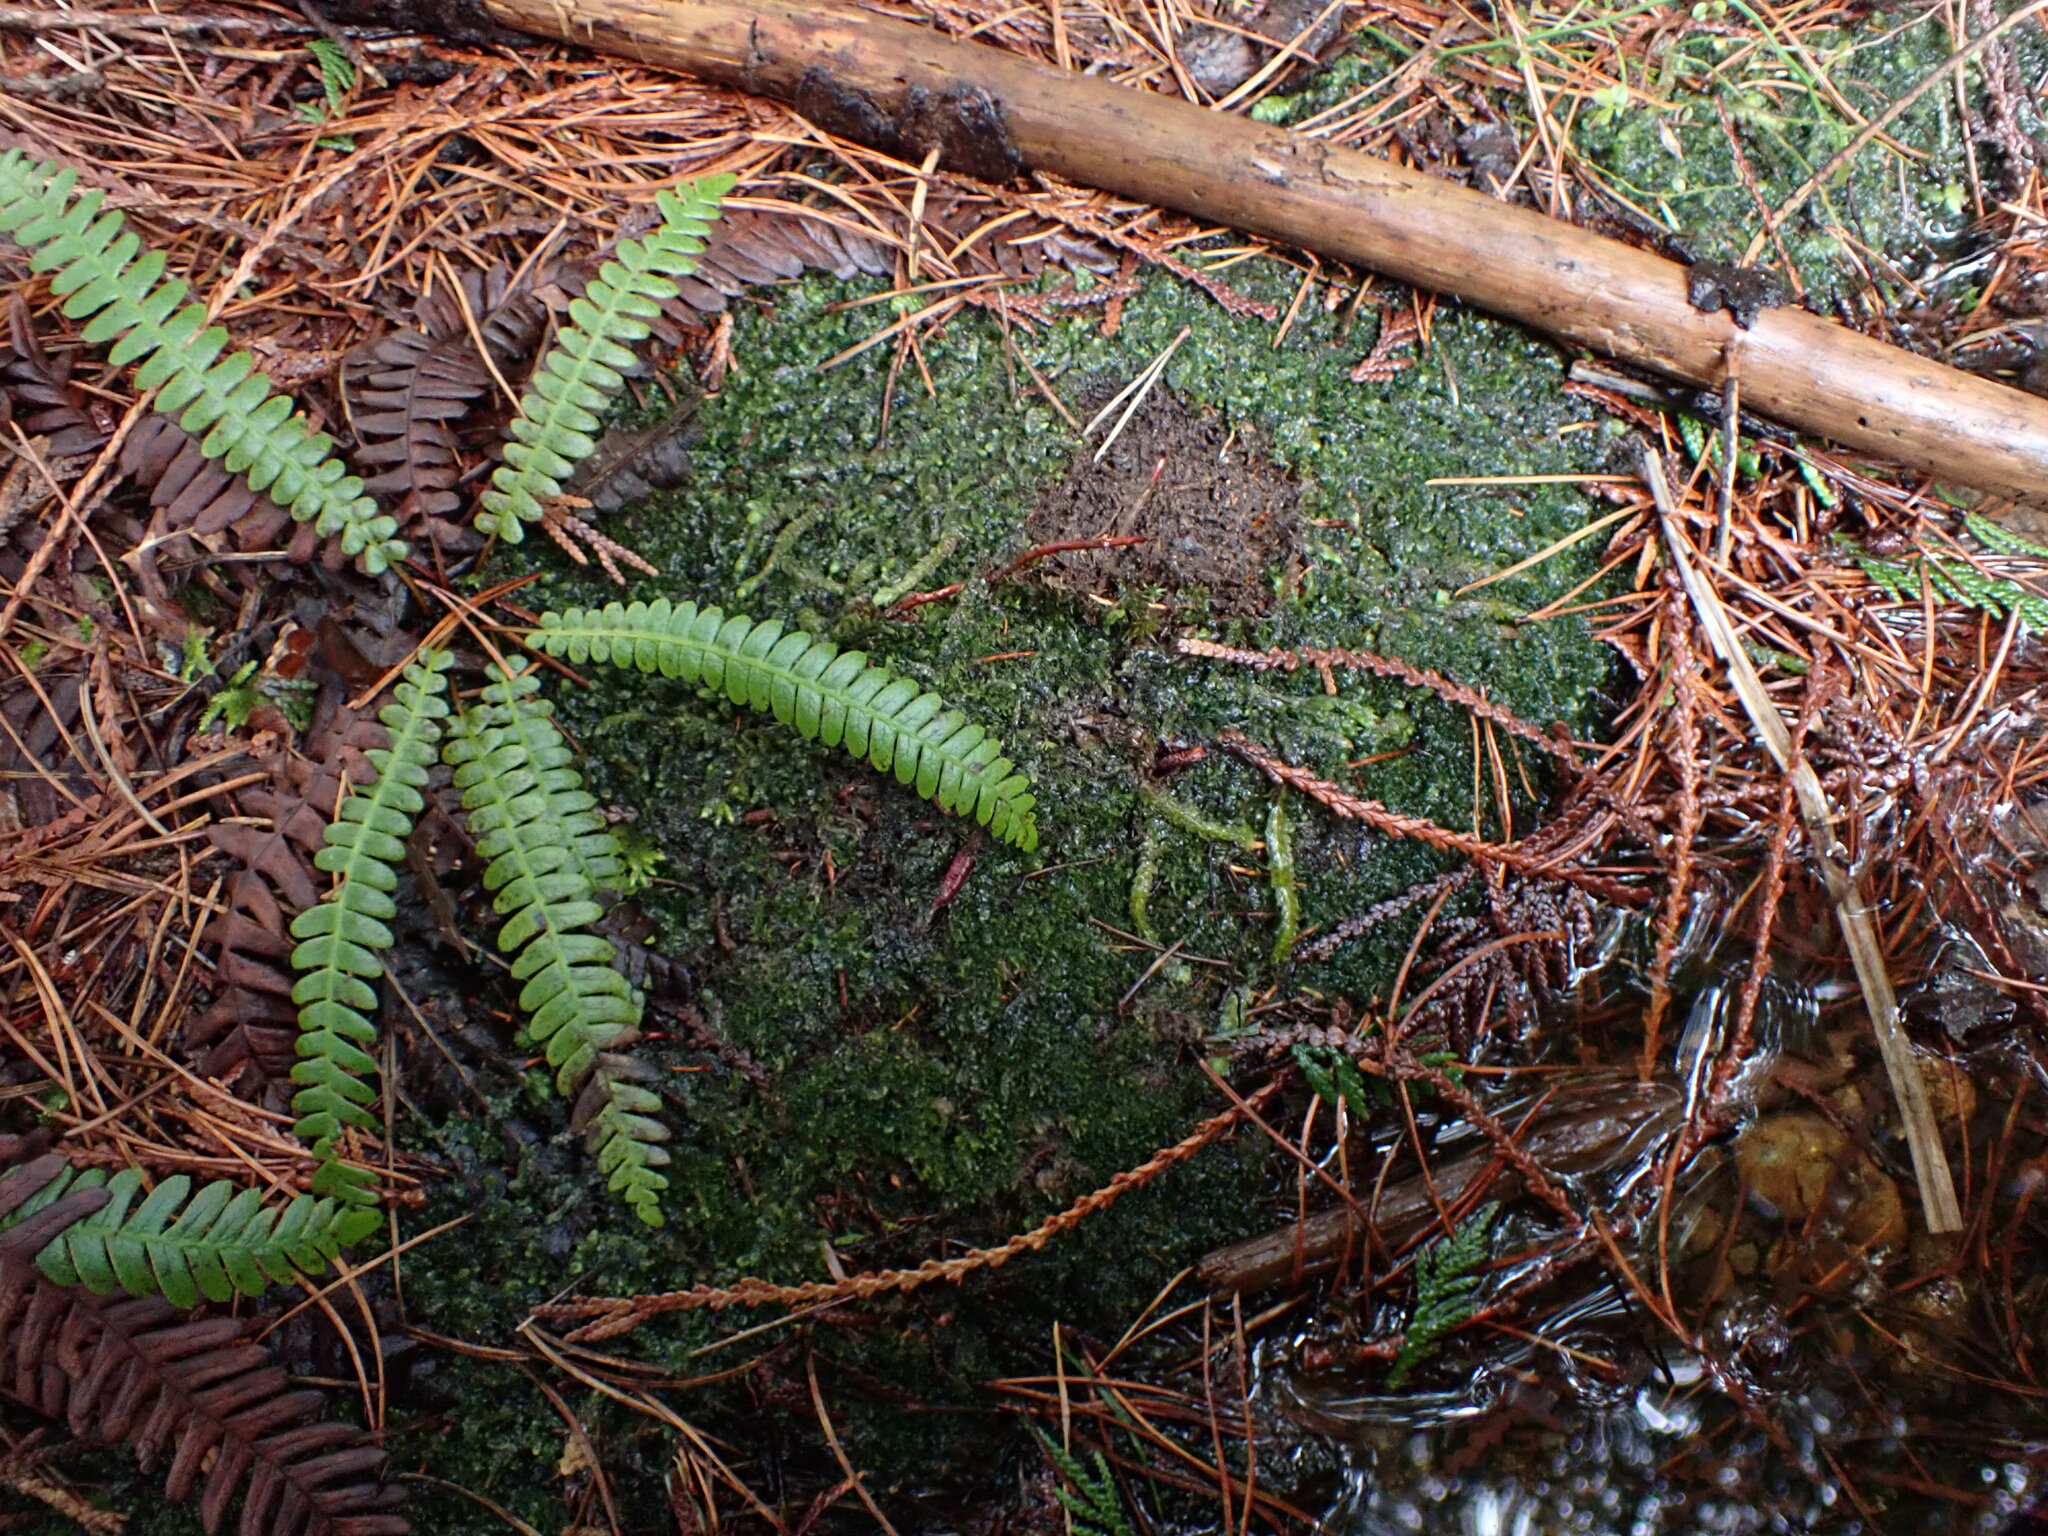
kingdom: Plantae
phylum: Tracheophyta
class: Polypodiopsida
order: Polypodiales
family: Blechnaceae
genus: Struthiopteris
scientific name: Struthiopteris spicant
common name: Deer fern
